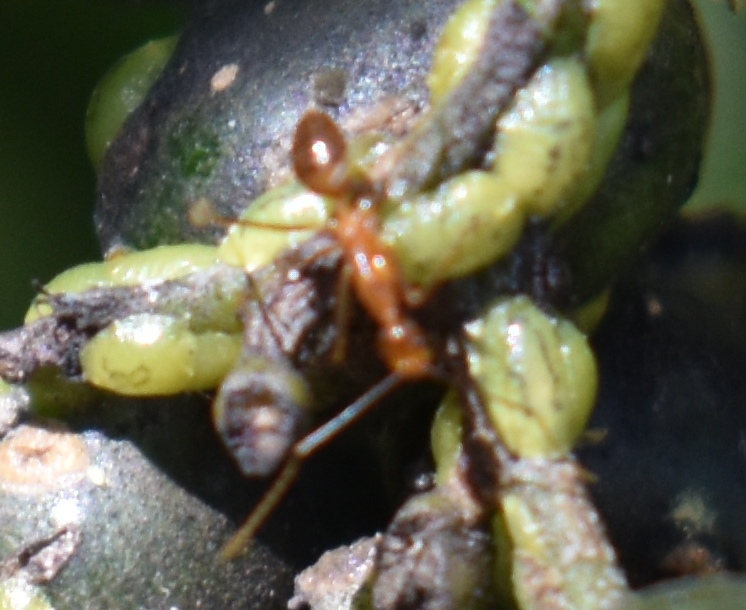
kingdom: Animalia
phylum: Arthropoda
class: Insecta
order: Hymenoptera
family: Formicidae
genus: Anoplolepis
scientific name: Anoplolepis gracilipes
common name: Ant
